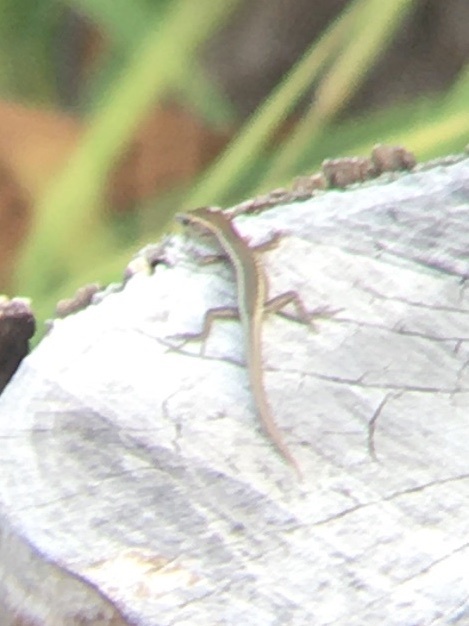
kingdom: Animalia
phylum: Chordata
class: Squamata
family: Scincidae
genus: Cryptoblepharus
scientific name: Cryptoblepharus poecilopleurus
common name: Mottled snake-eyed skink
